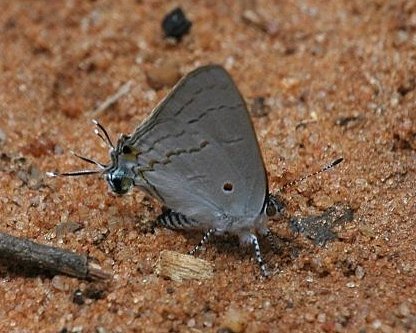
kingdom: Animalia
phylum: Arthropoda
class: Insecta
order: Lepidoptera
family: Lycaenidae
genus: Hypolycaena
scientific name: Hypolycaena philippus
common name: Common hairstreak
